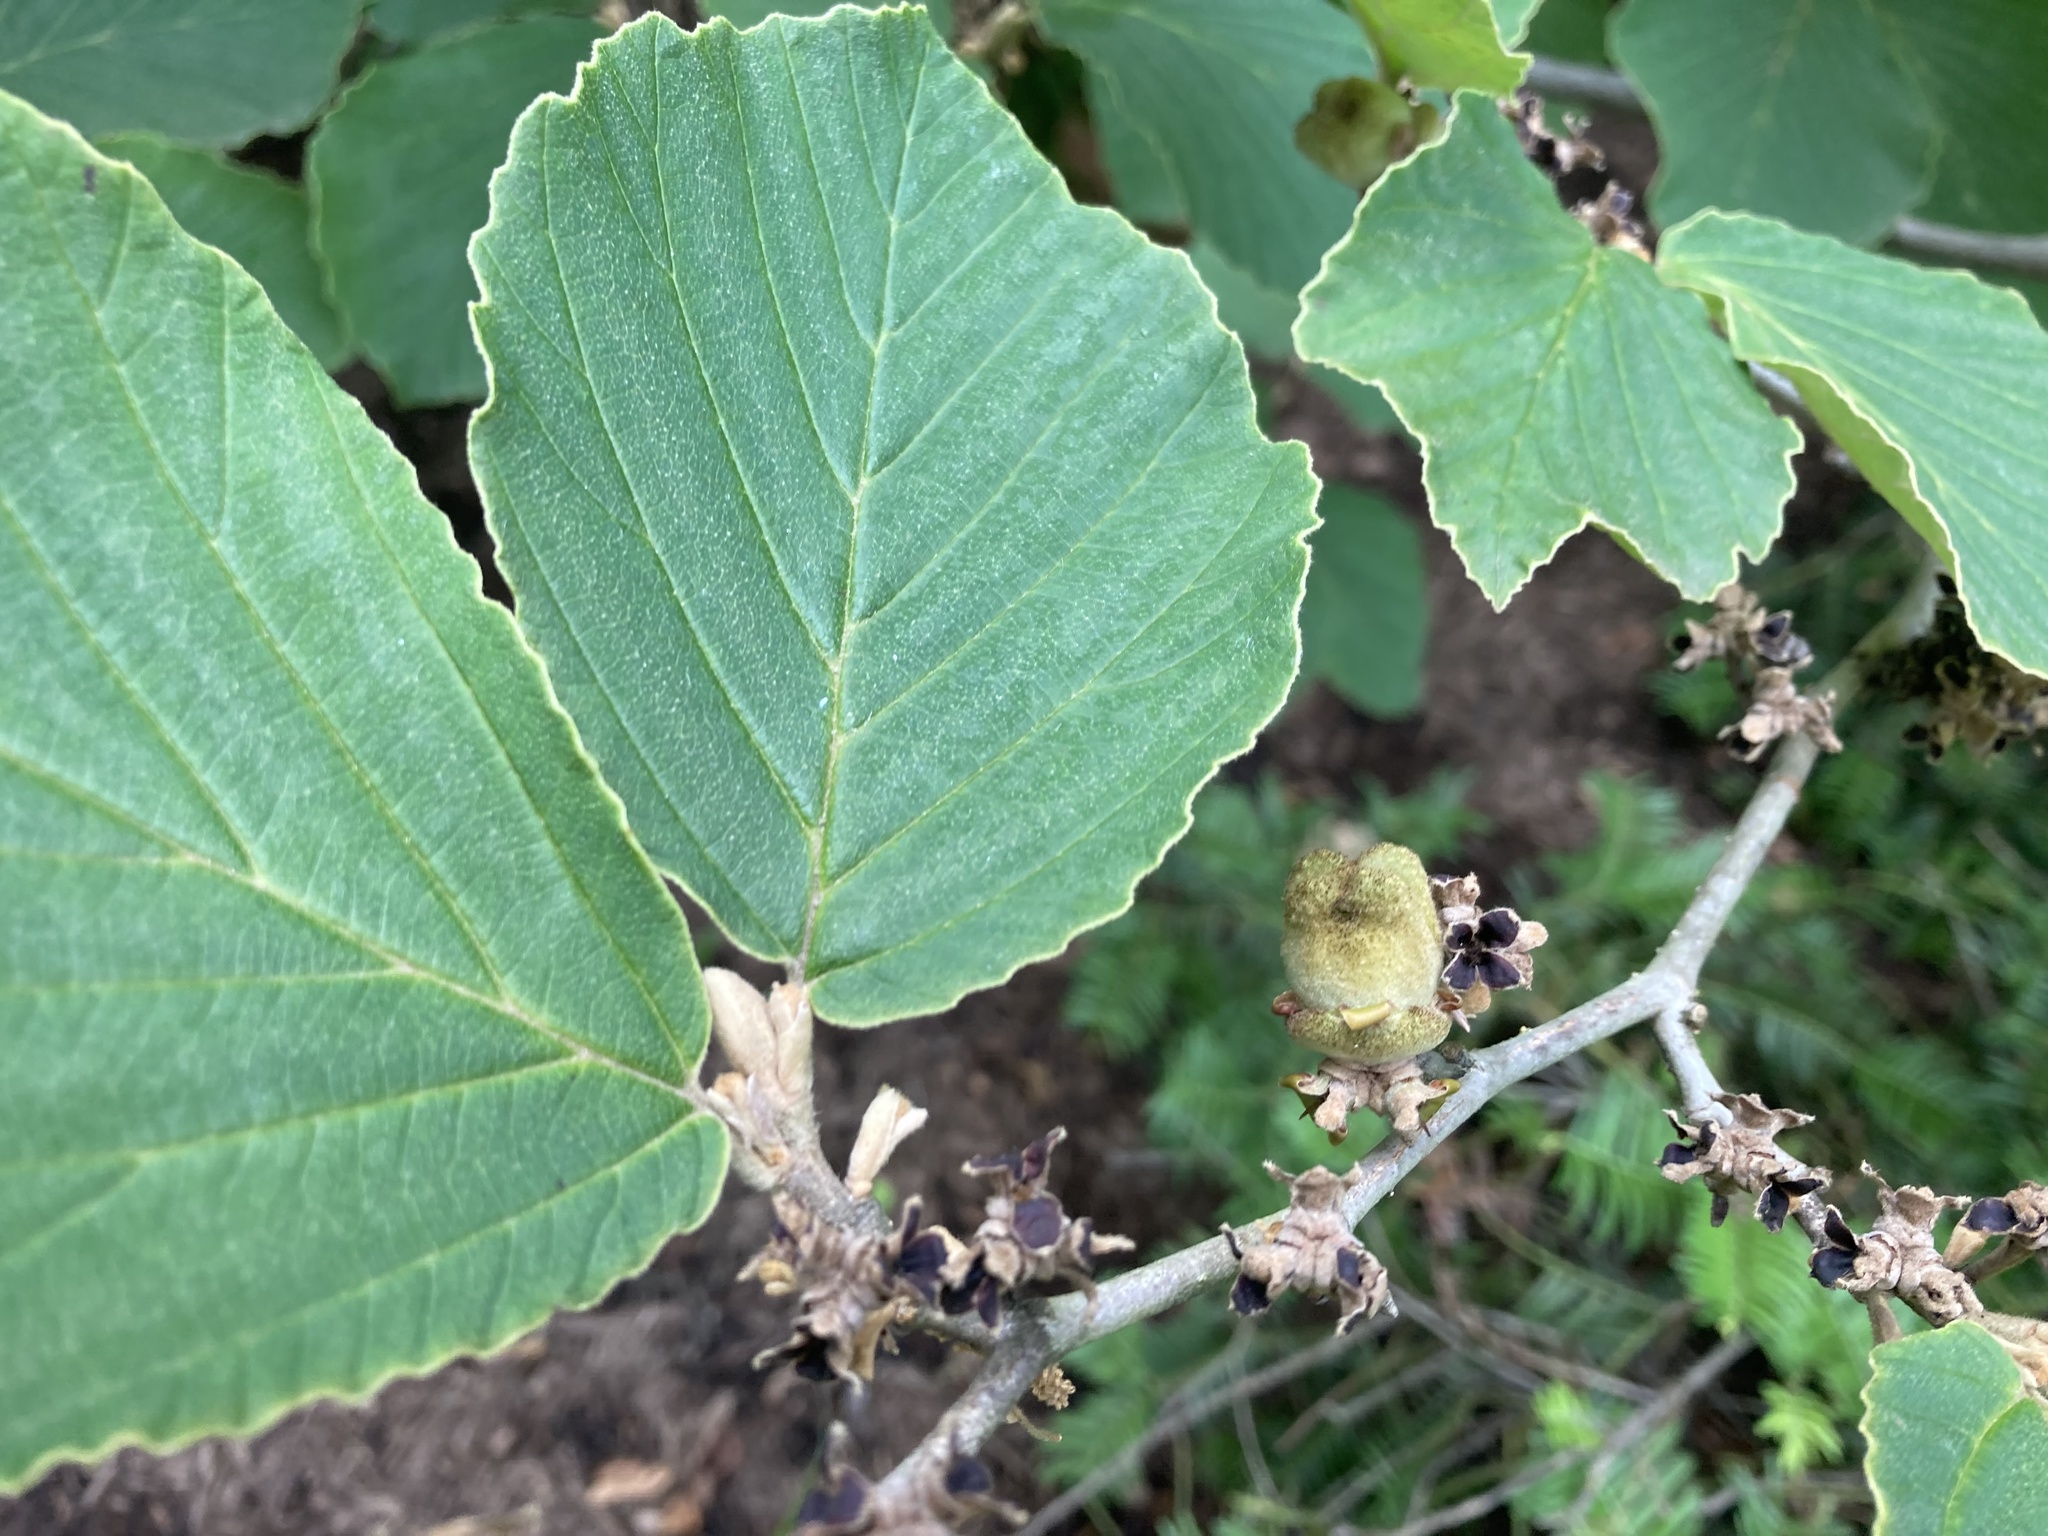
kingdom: Plantae
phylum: Tracheophyta
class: Magnoliopsida
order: Saxifragales
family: Hamamelidaceae
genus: Hamamelis
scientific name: Hamamelis virginiana
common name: Witch-hazel
